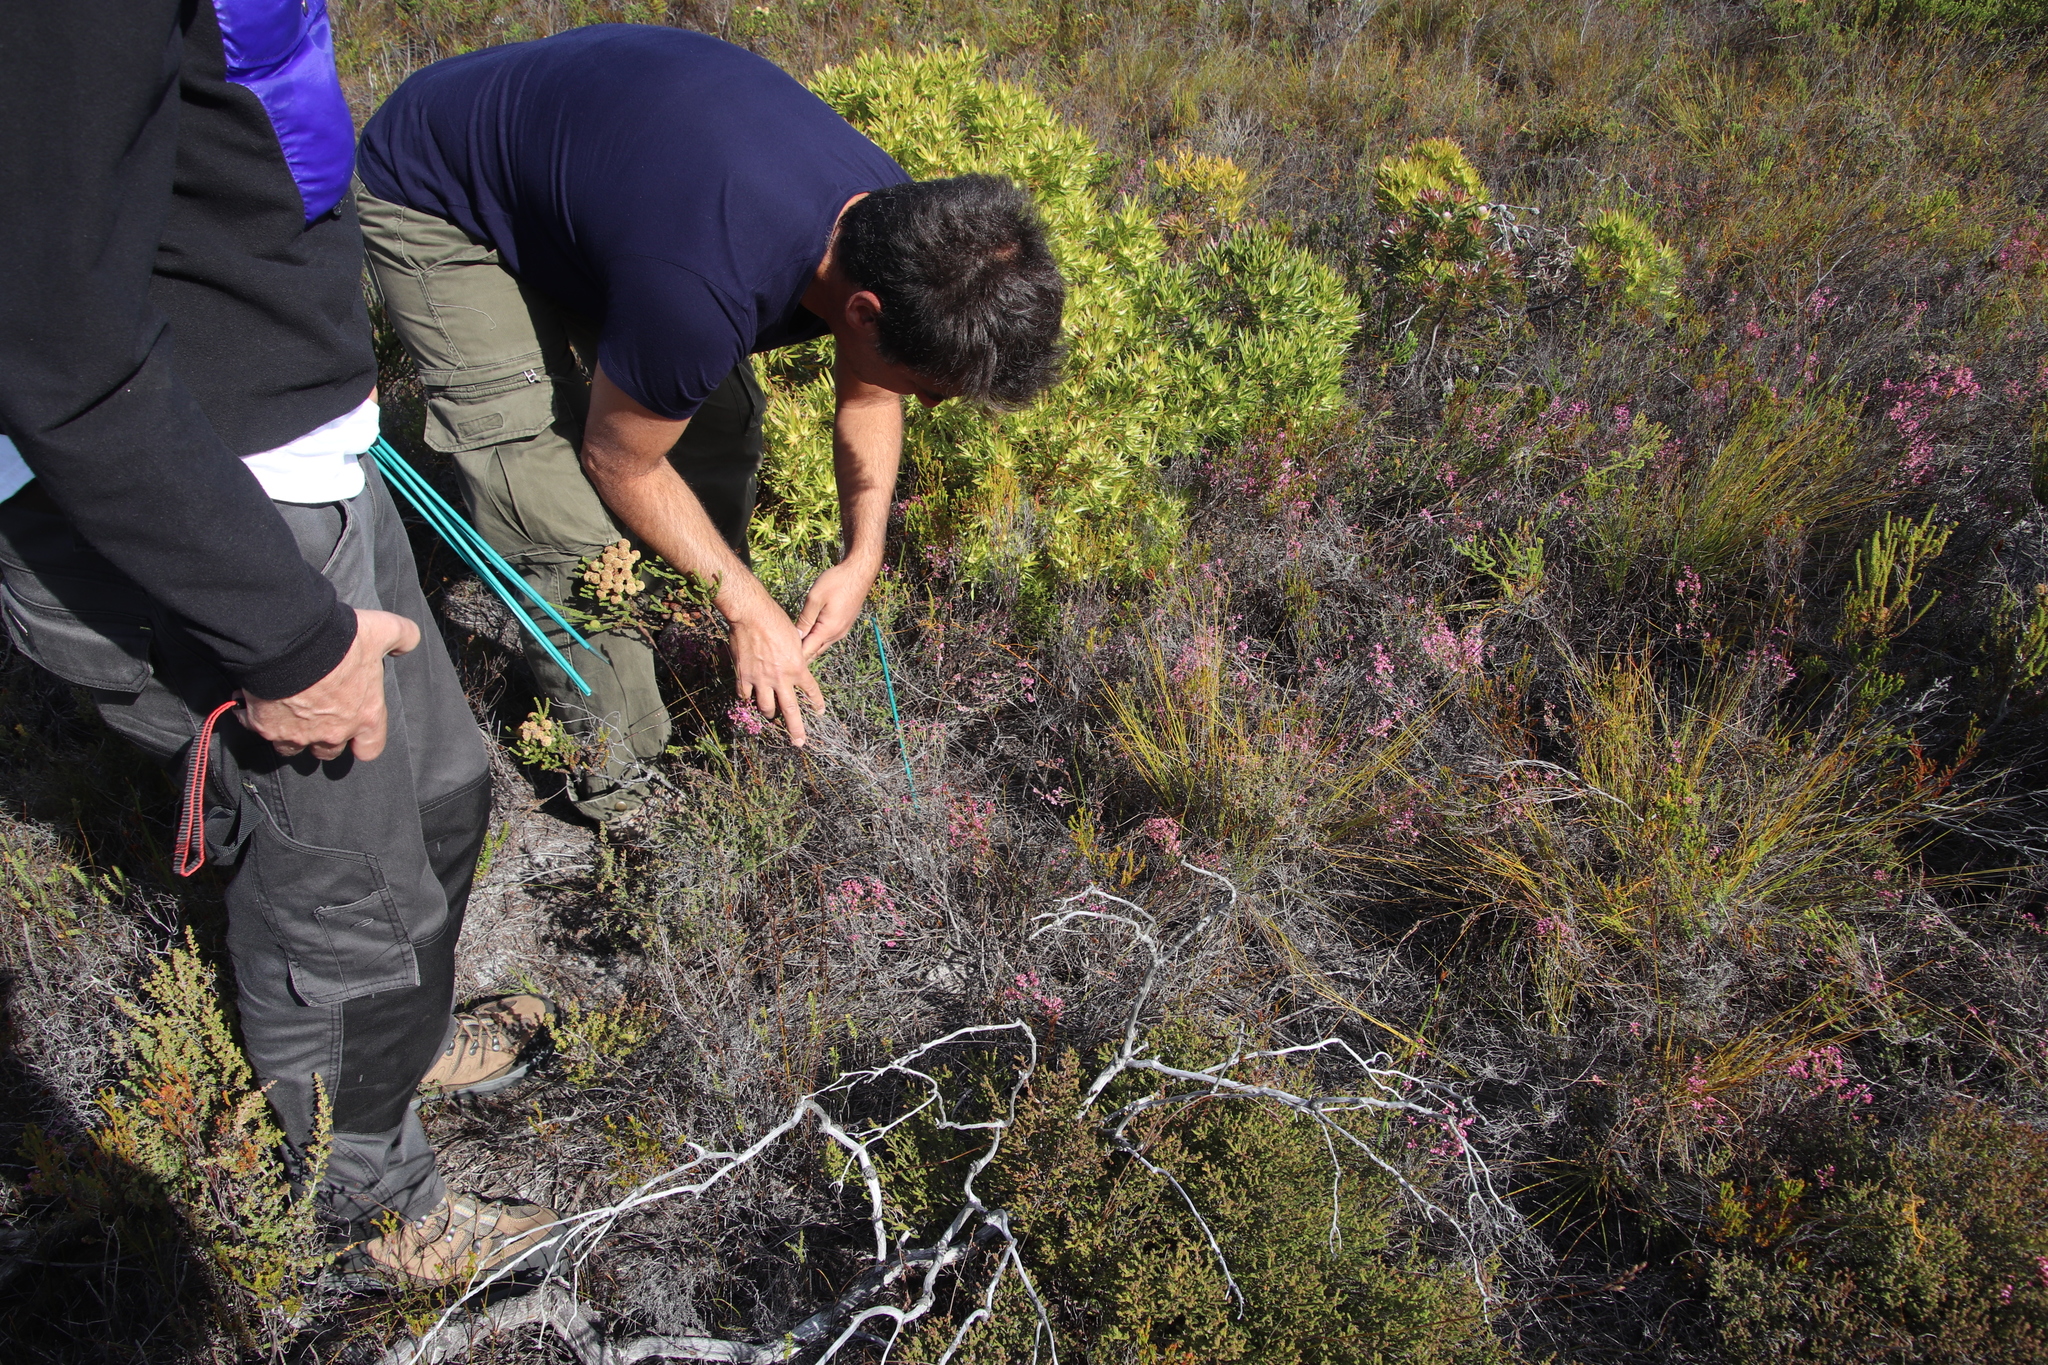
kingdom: Plantae
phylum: Tracheophyta
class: Magnoliopsida
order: Ericales
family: Ericaceae
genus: Erica
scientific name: Erica gnaphaloides
